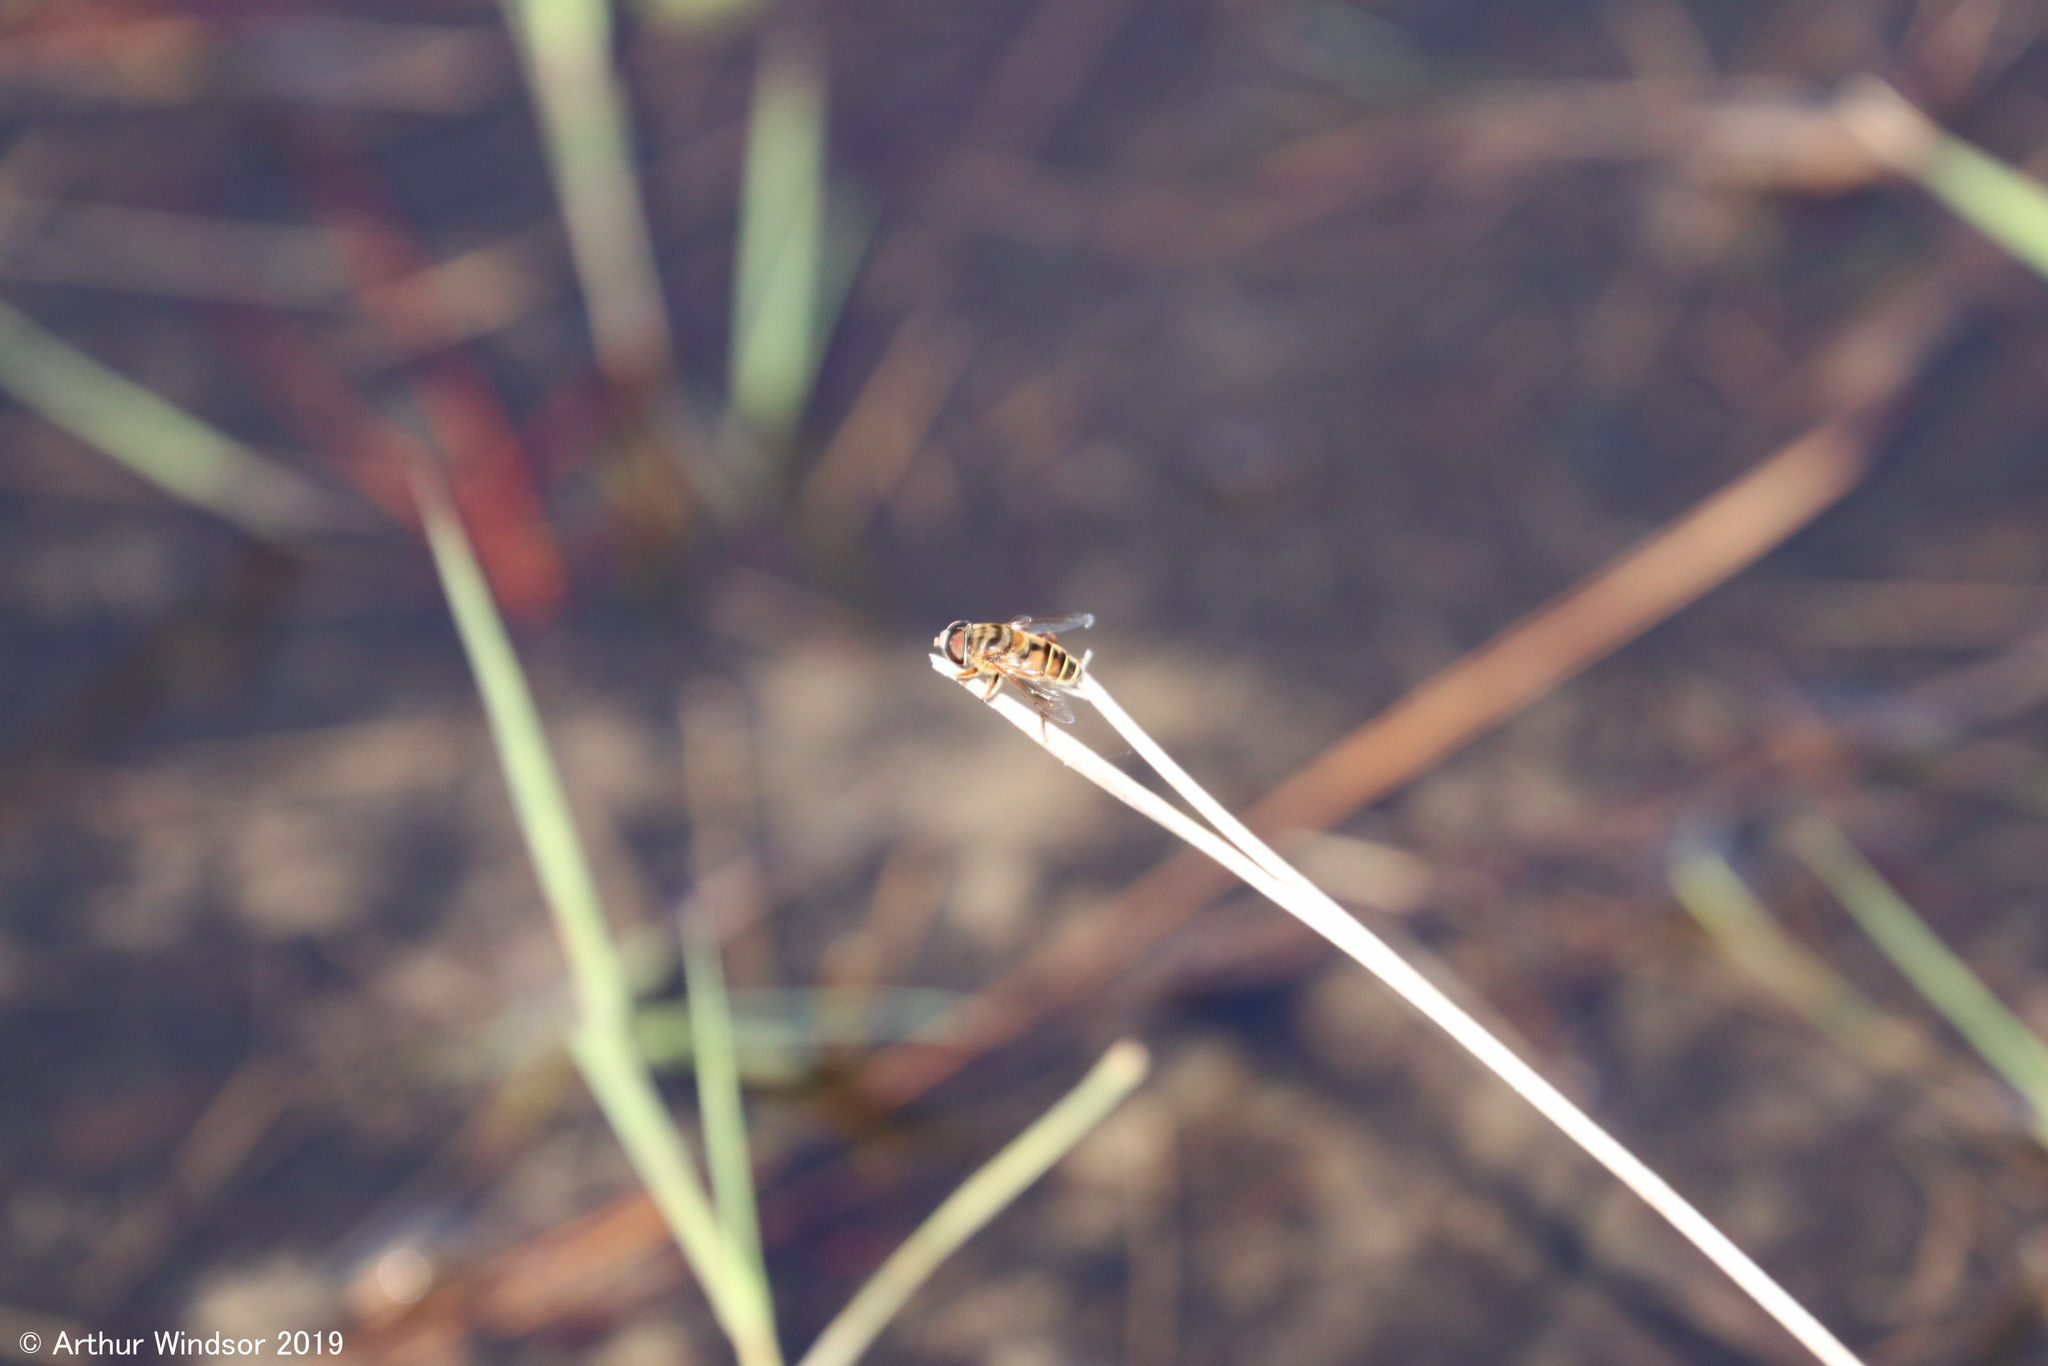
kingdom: Animalia
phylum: Arthropoda
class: Insecta
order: Diptera
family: Syrphidae
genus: Palpada
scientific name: Palpada vinetorum
